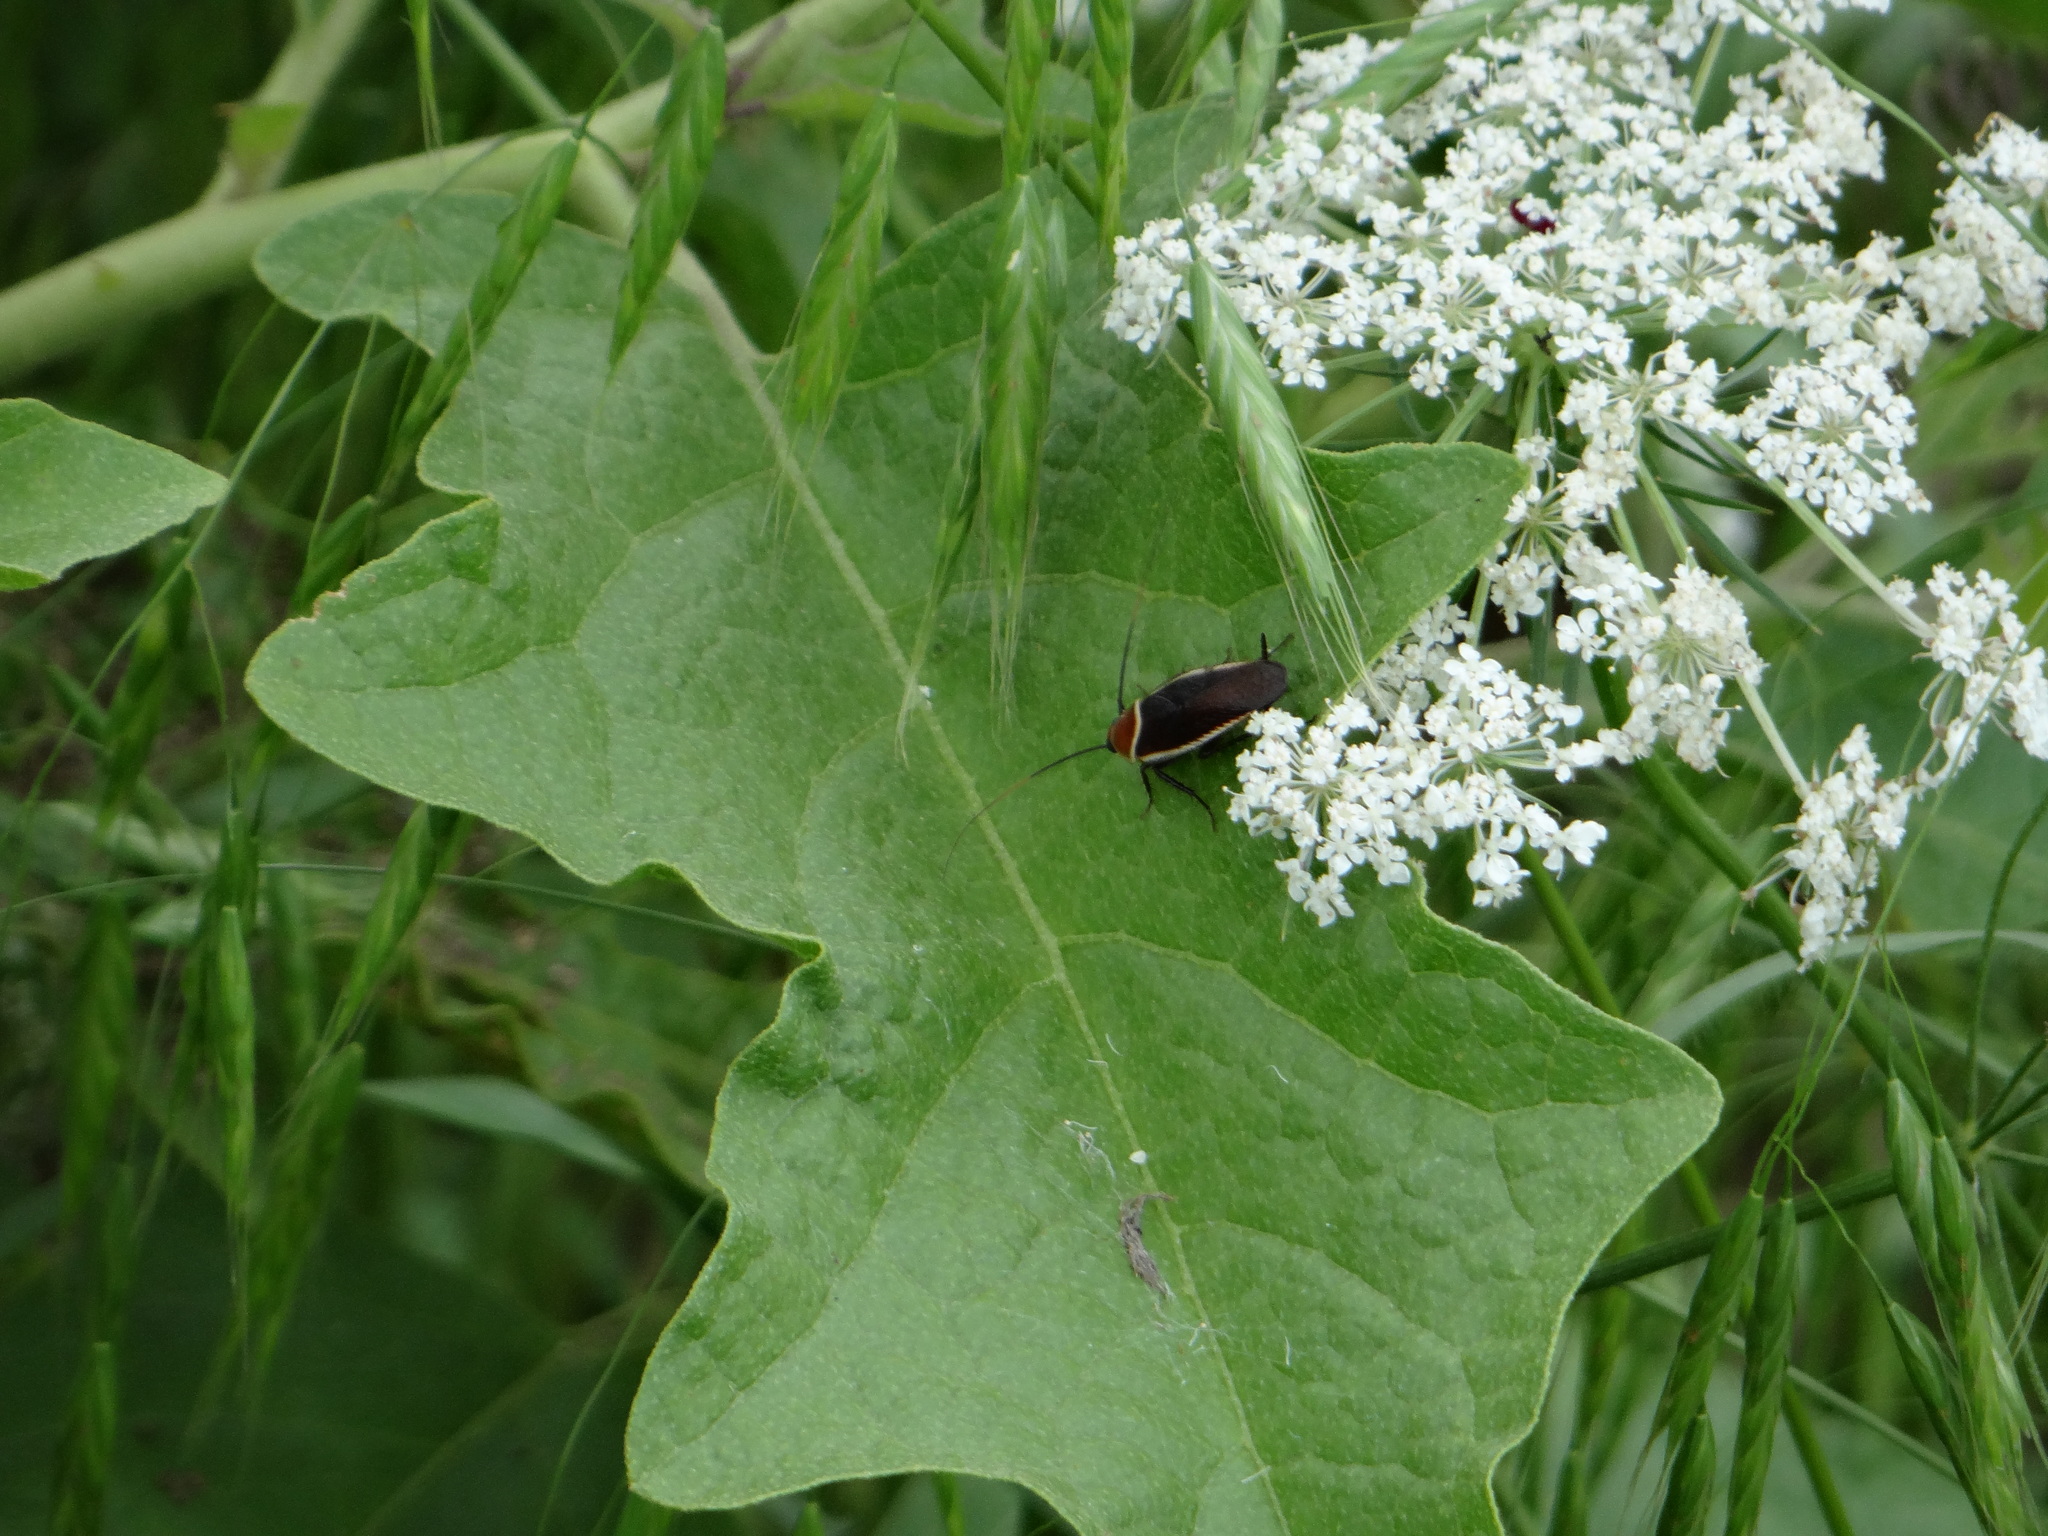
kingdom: Animalia
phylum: Arthropoda
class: Insecta
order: Blattodea
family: Ectobiidae
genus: Pseudomops
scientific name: Pseudomops septentrionalis
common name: Pale-bordered field cockroach
